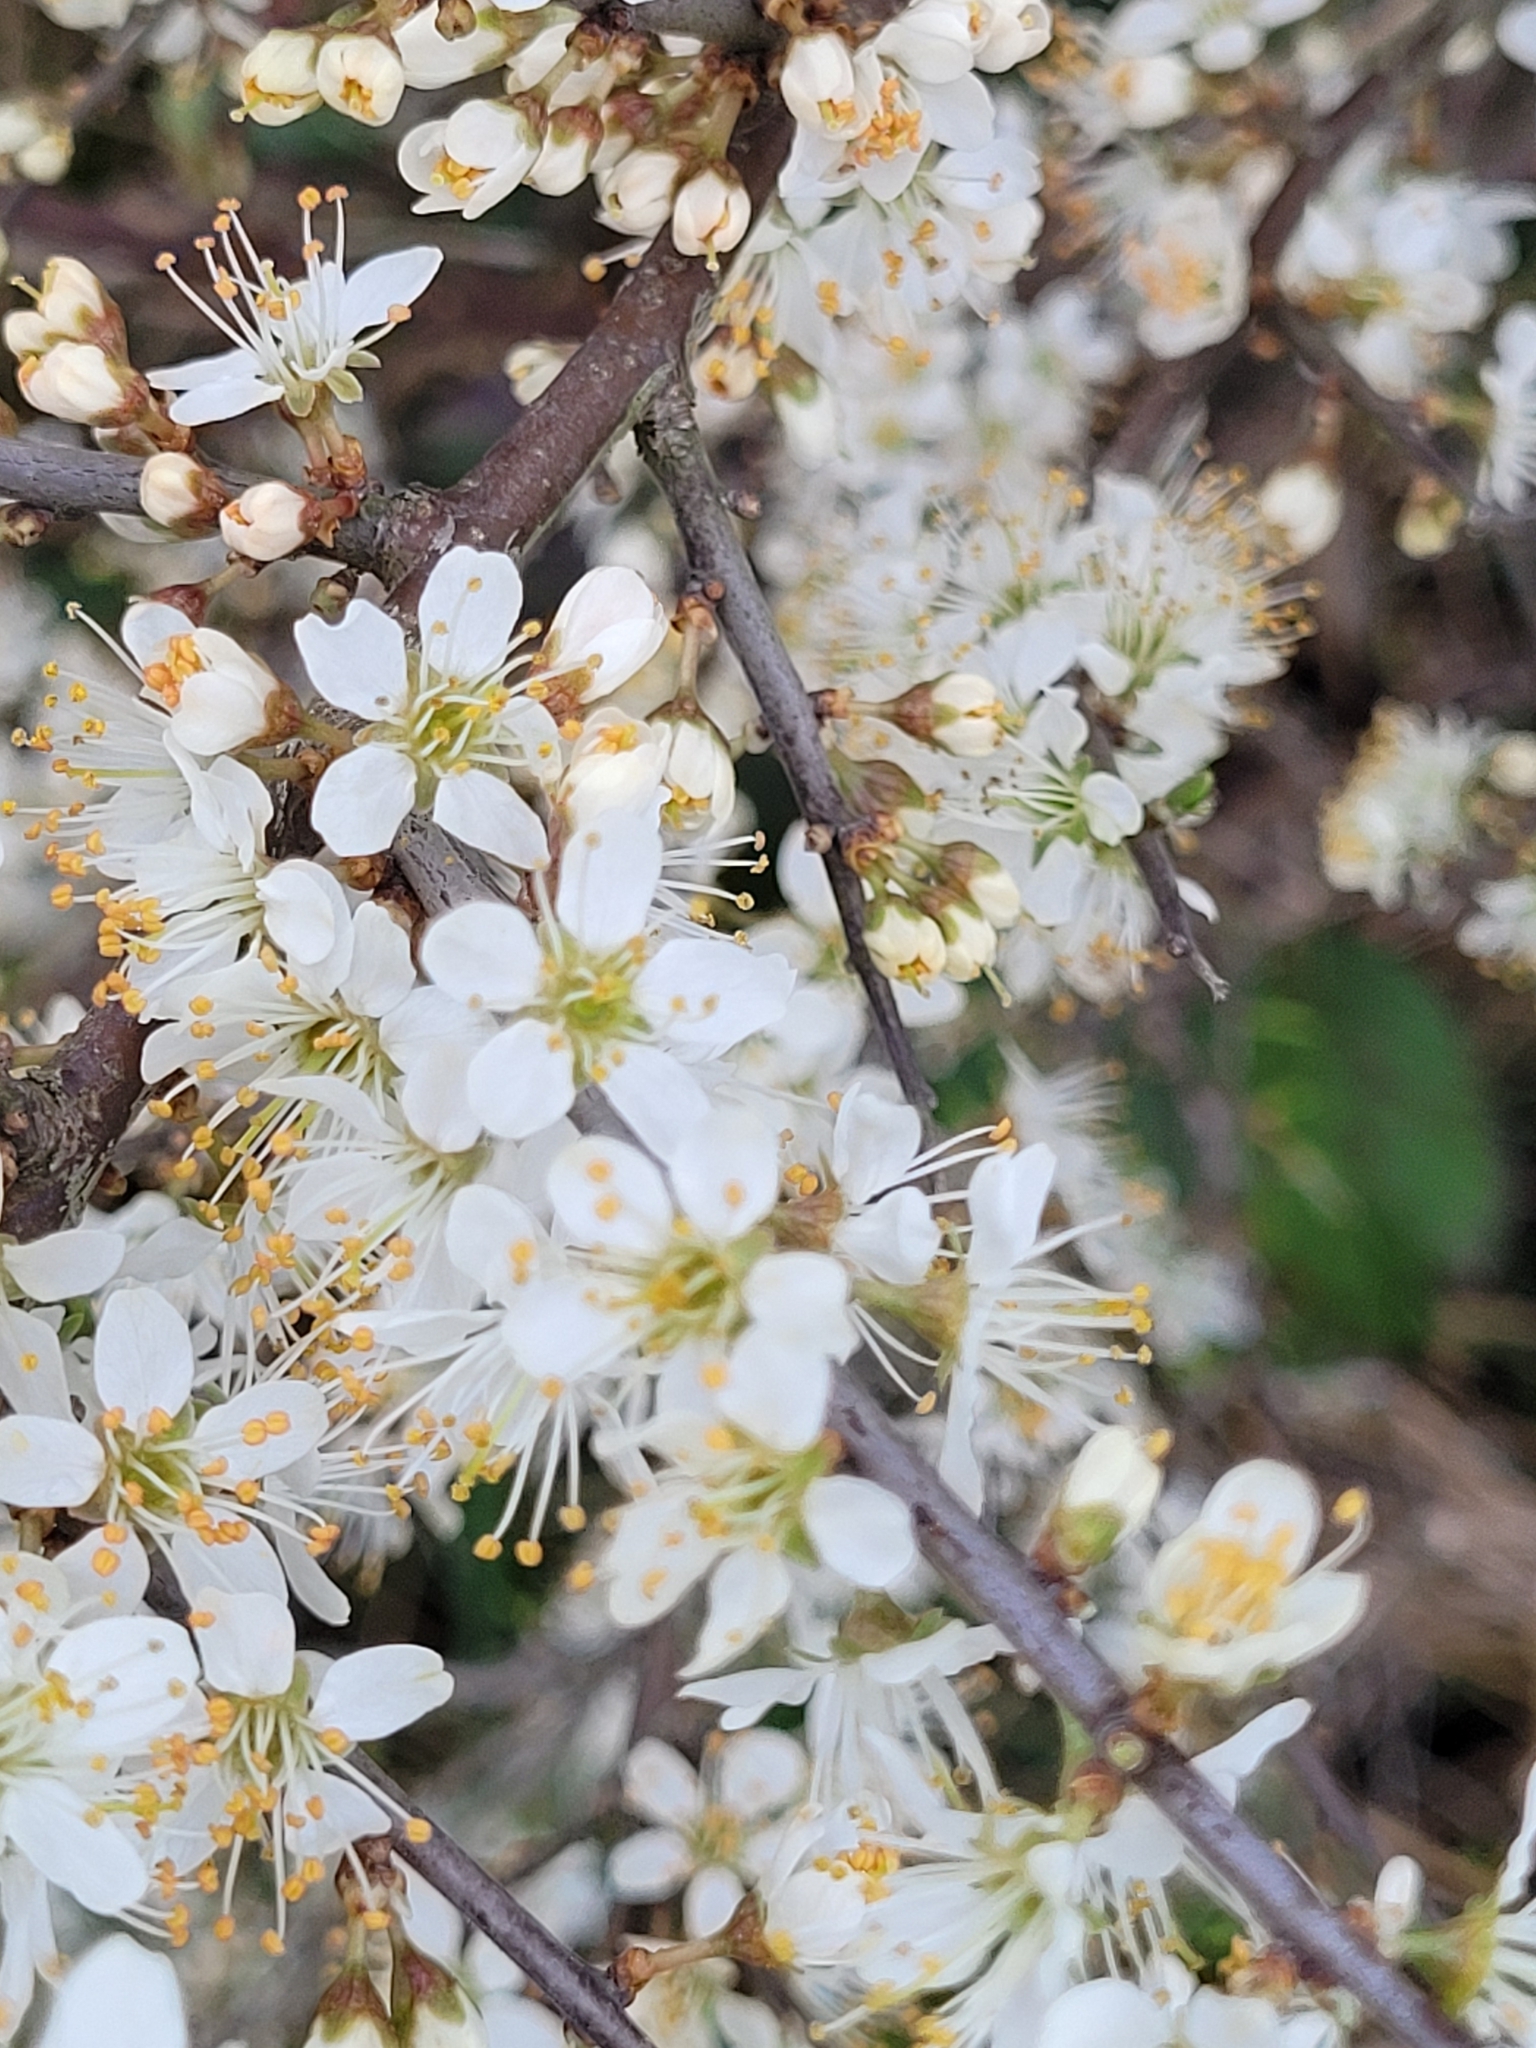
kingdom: Plantae
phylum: Tracheophyta
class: Magnoliopsida
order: Rosales
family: Rosaceae
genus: Prunus
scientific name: Prunus spinosa
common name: Blackthorn
